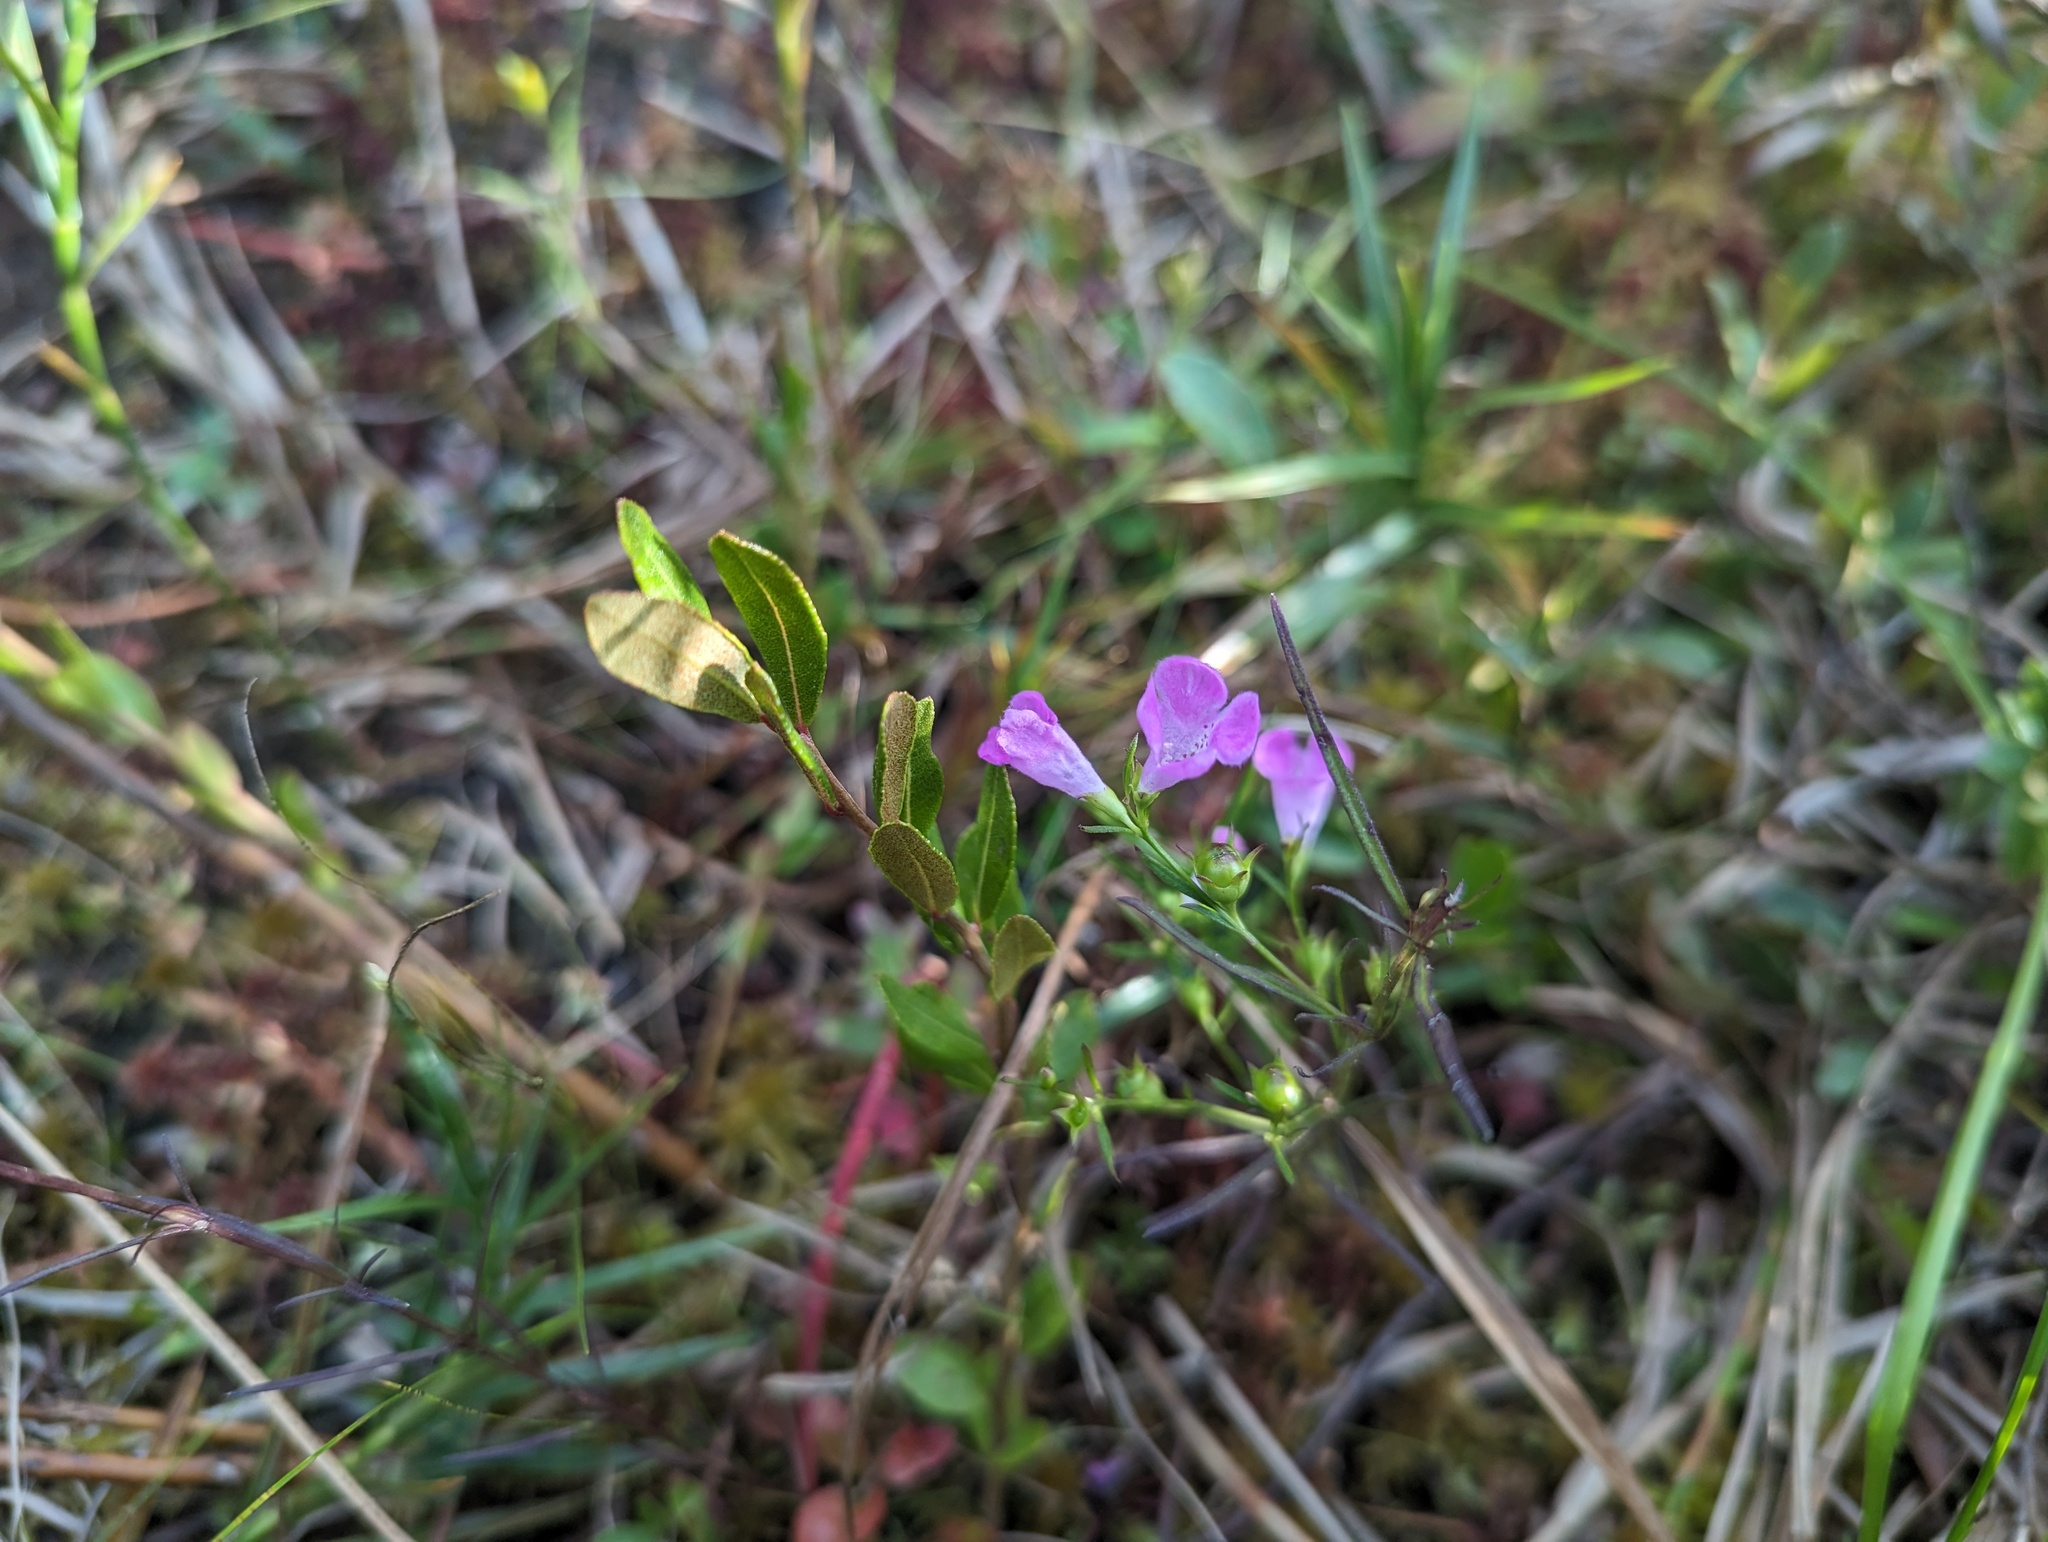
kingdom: Plantae
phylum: Tracheophyta
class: Magnoliopsida
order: Lamiales
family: Orobanchaceae
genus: Agalinis
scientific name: Agalinis purpurea
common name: Purple false foxglove
